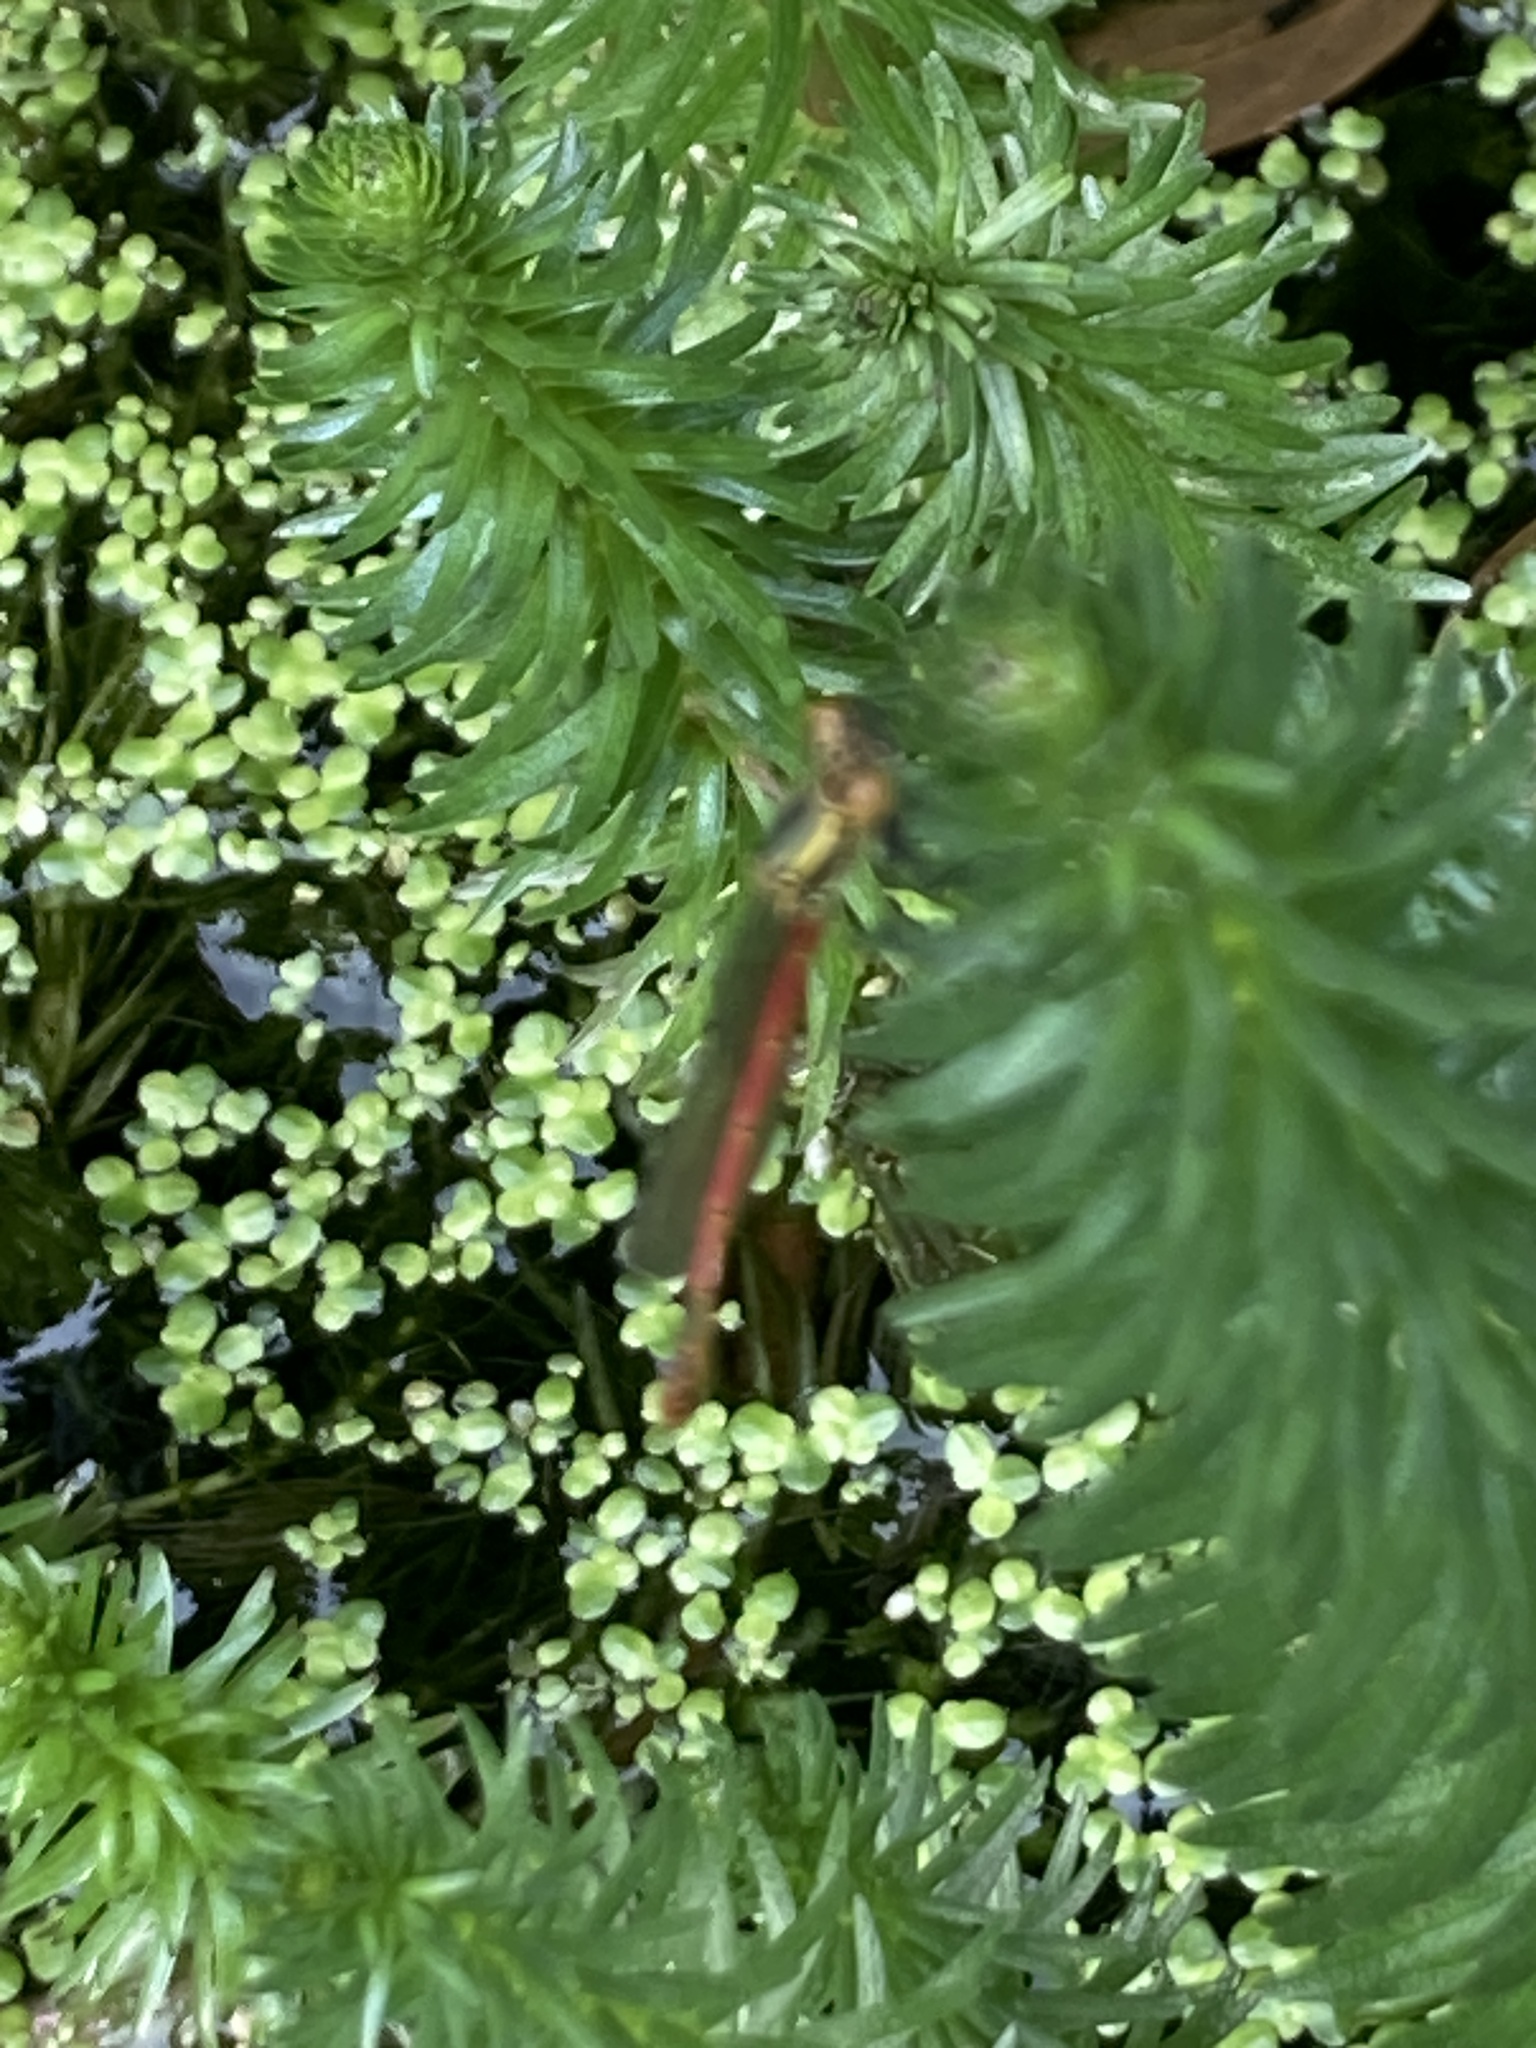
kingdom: Animalia
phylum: Arthropoda
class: Insecta
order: Odonata
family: Coenagrionidae
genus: Pyrrhosoma
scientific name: Pyrrhosoma nymphula
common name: Large red damsel
